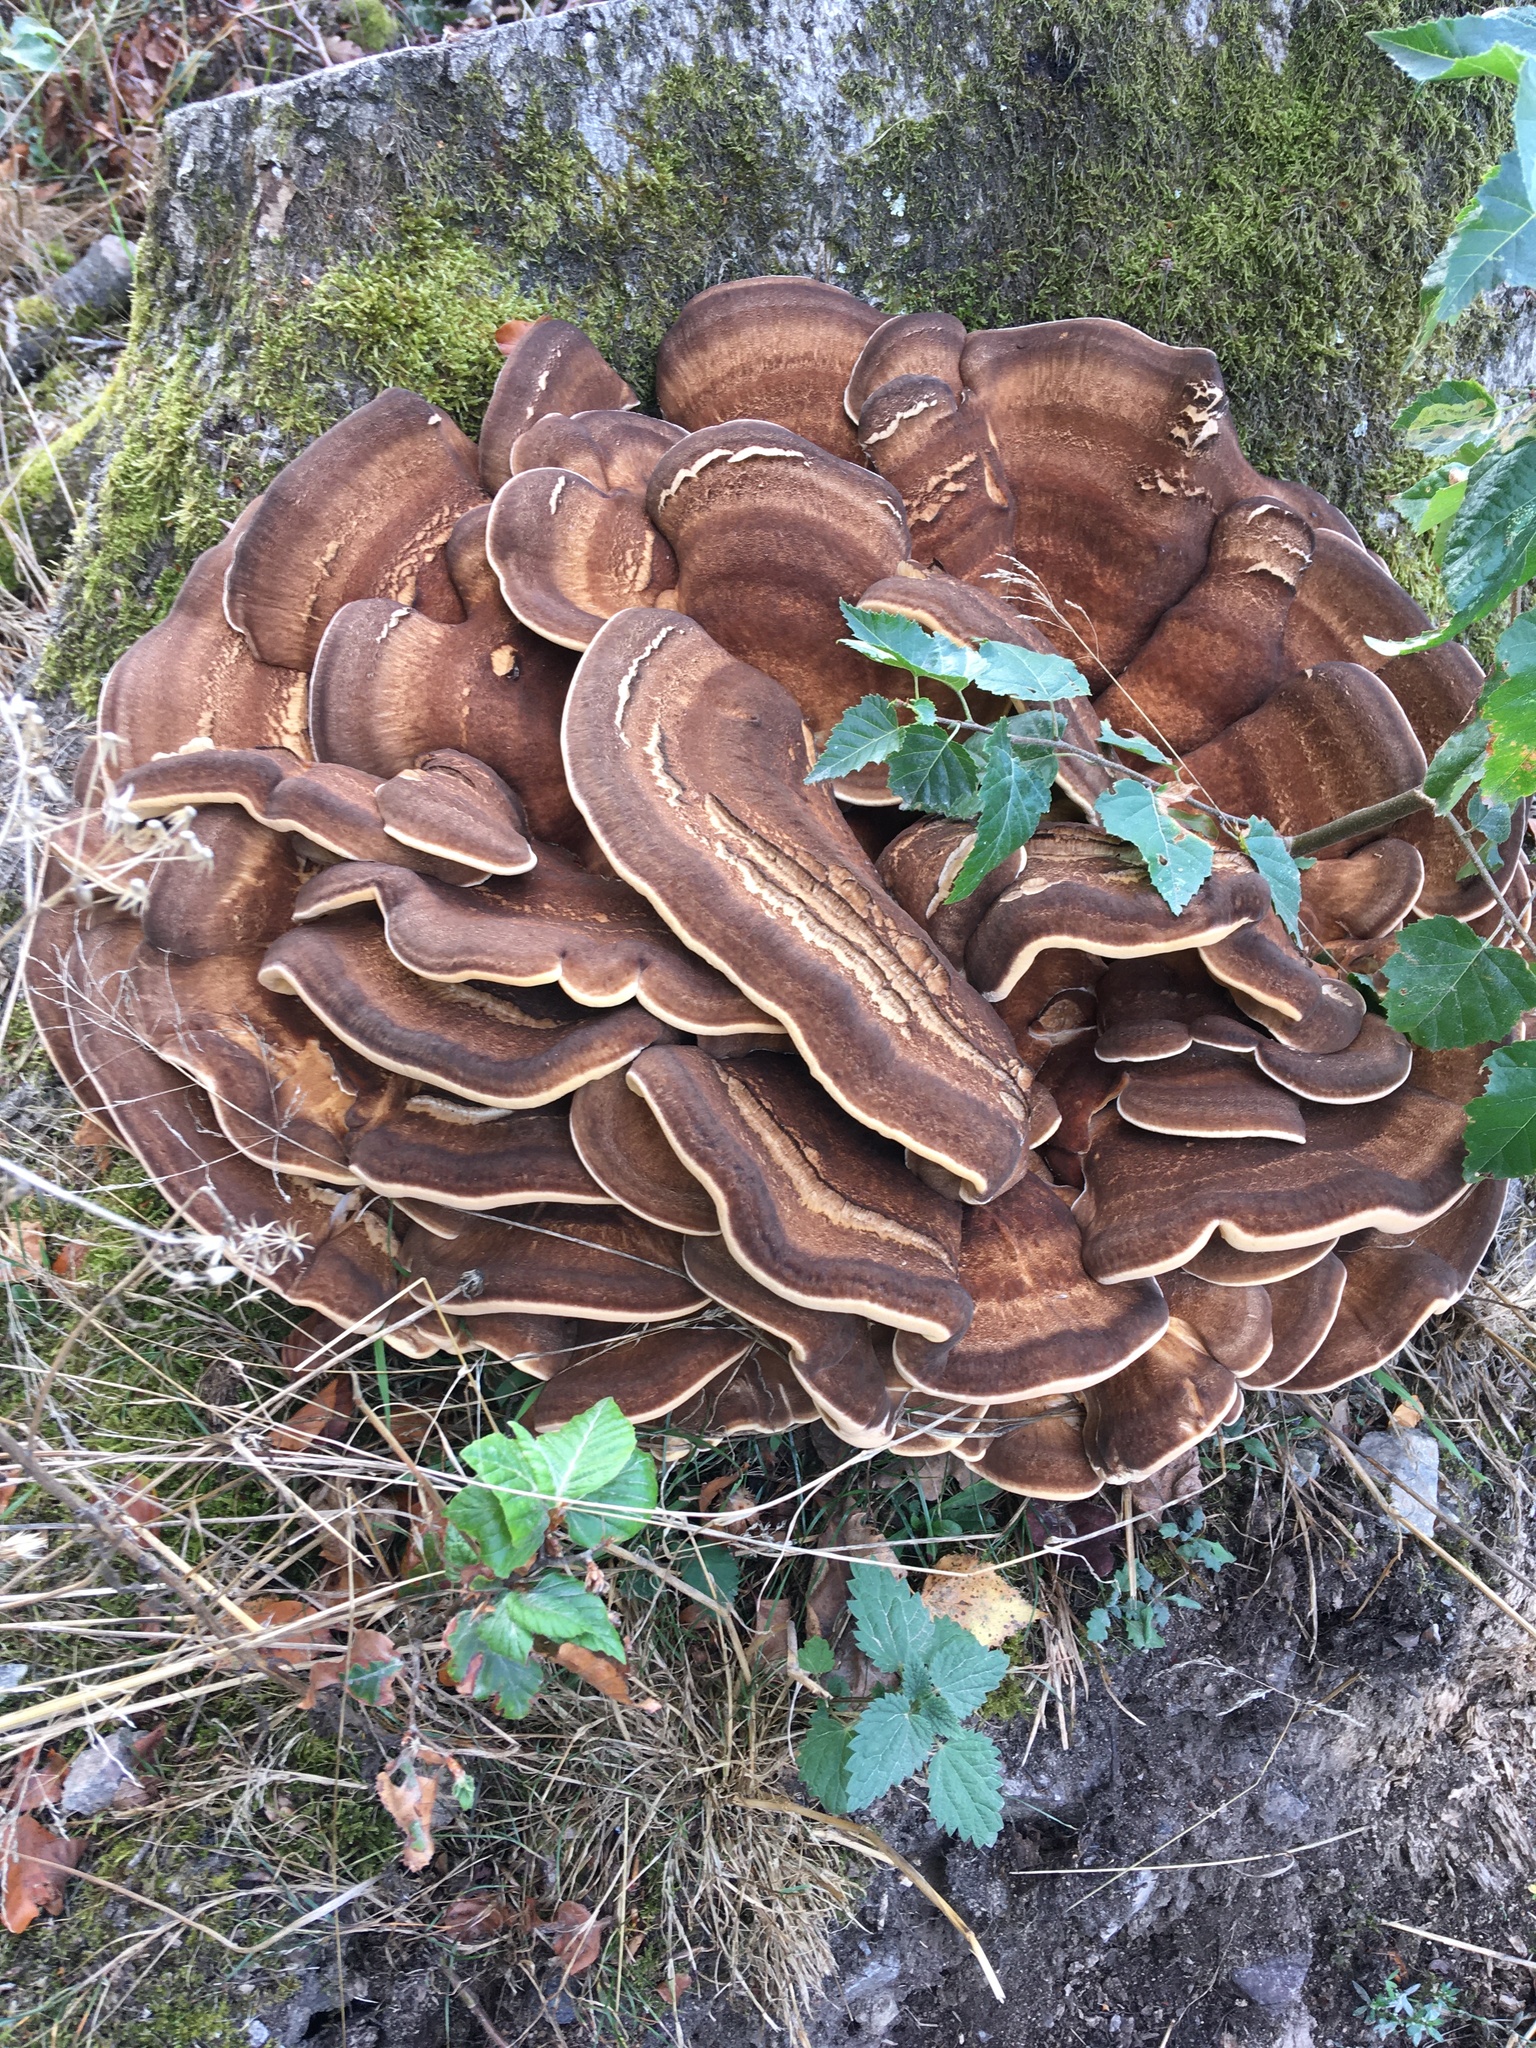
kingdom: Fungi
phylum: Basidiomycota
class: Agaricomycetes
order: Polyporales
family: Meripilaceae
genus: Meripilus
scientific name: Meripilus giganteus
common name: Giant polypore
